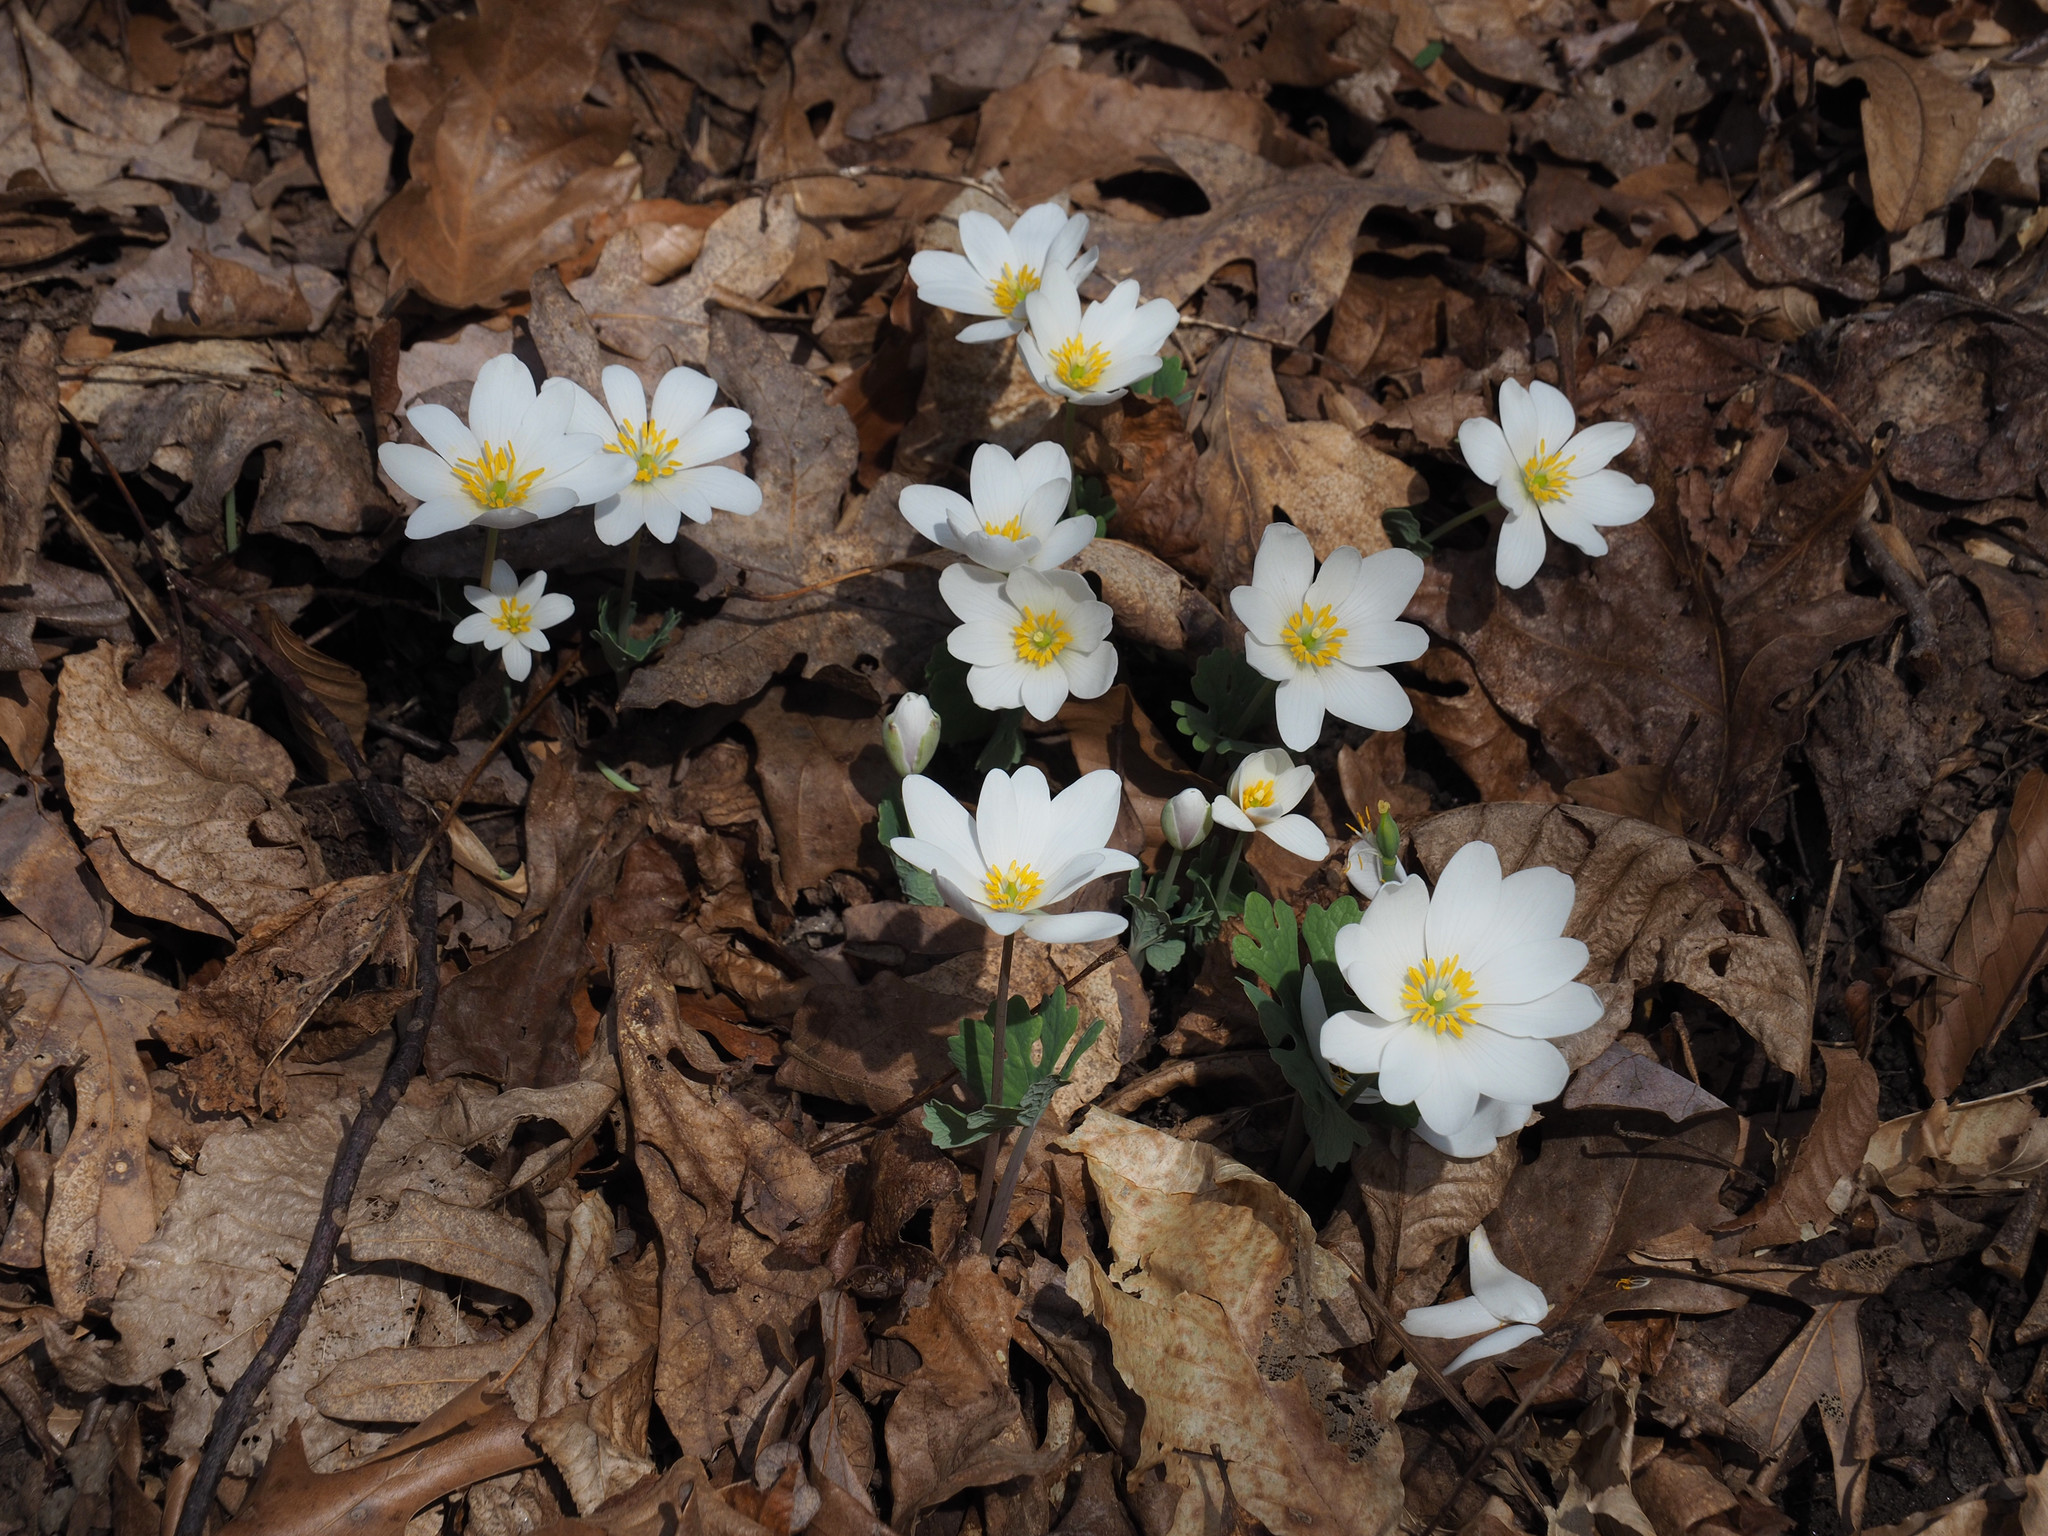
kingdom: Plantae
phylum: Tracheophyta
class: Magnoliopsida
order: Ranunculales
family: Papaveraceae
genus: Sanguinaria
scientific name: Sanguinaria canadensis
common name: Bloodroot
